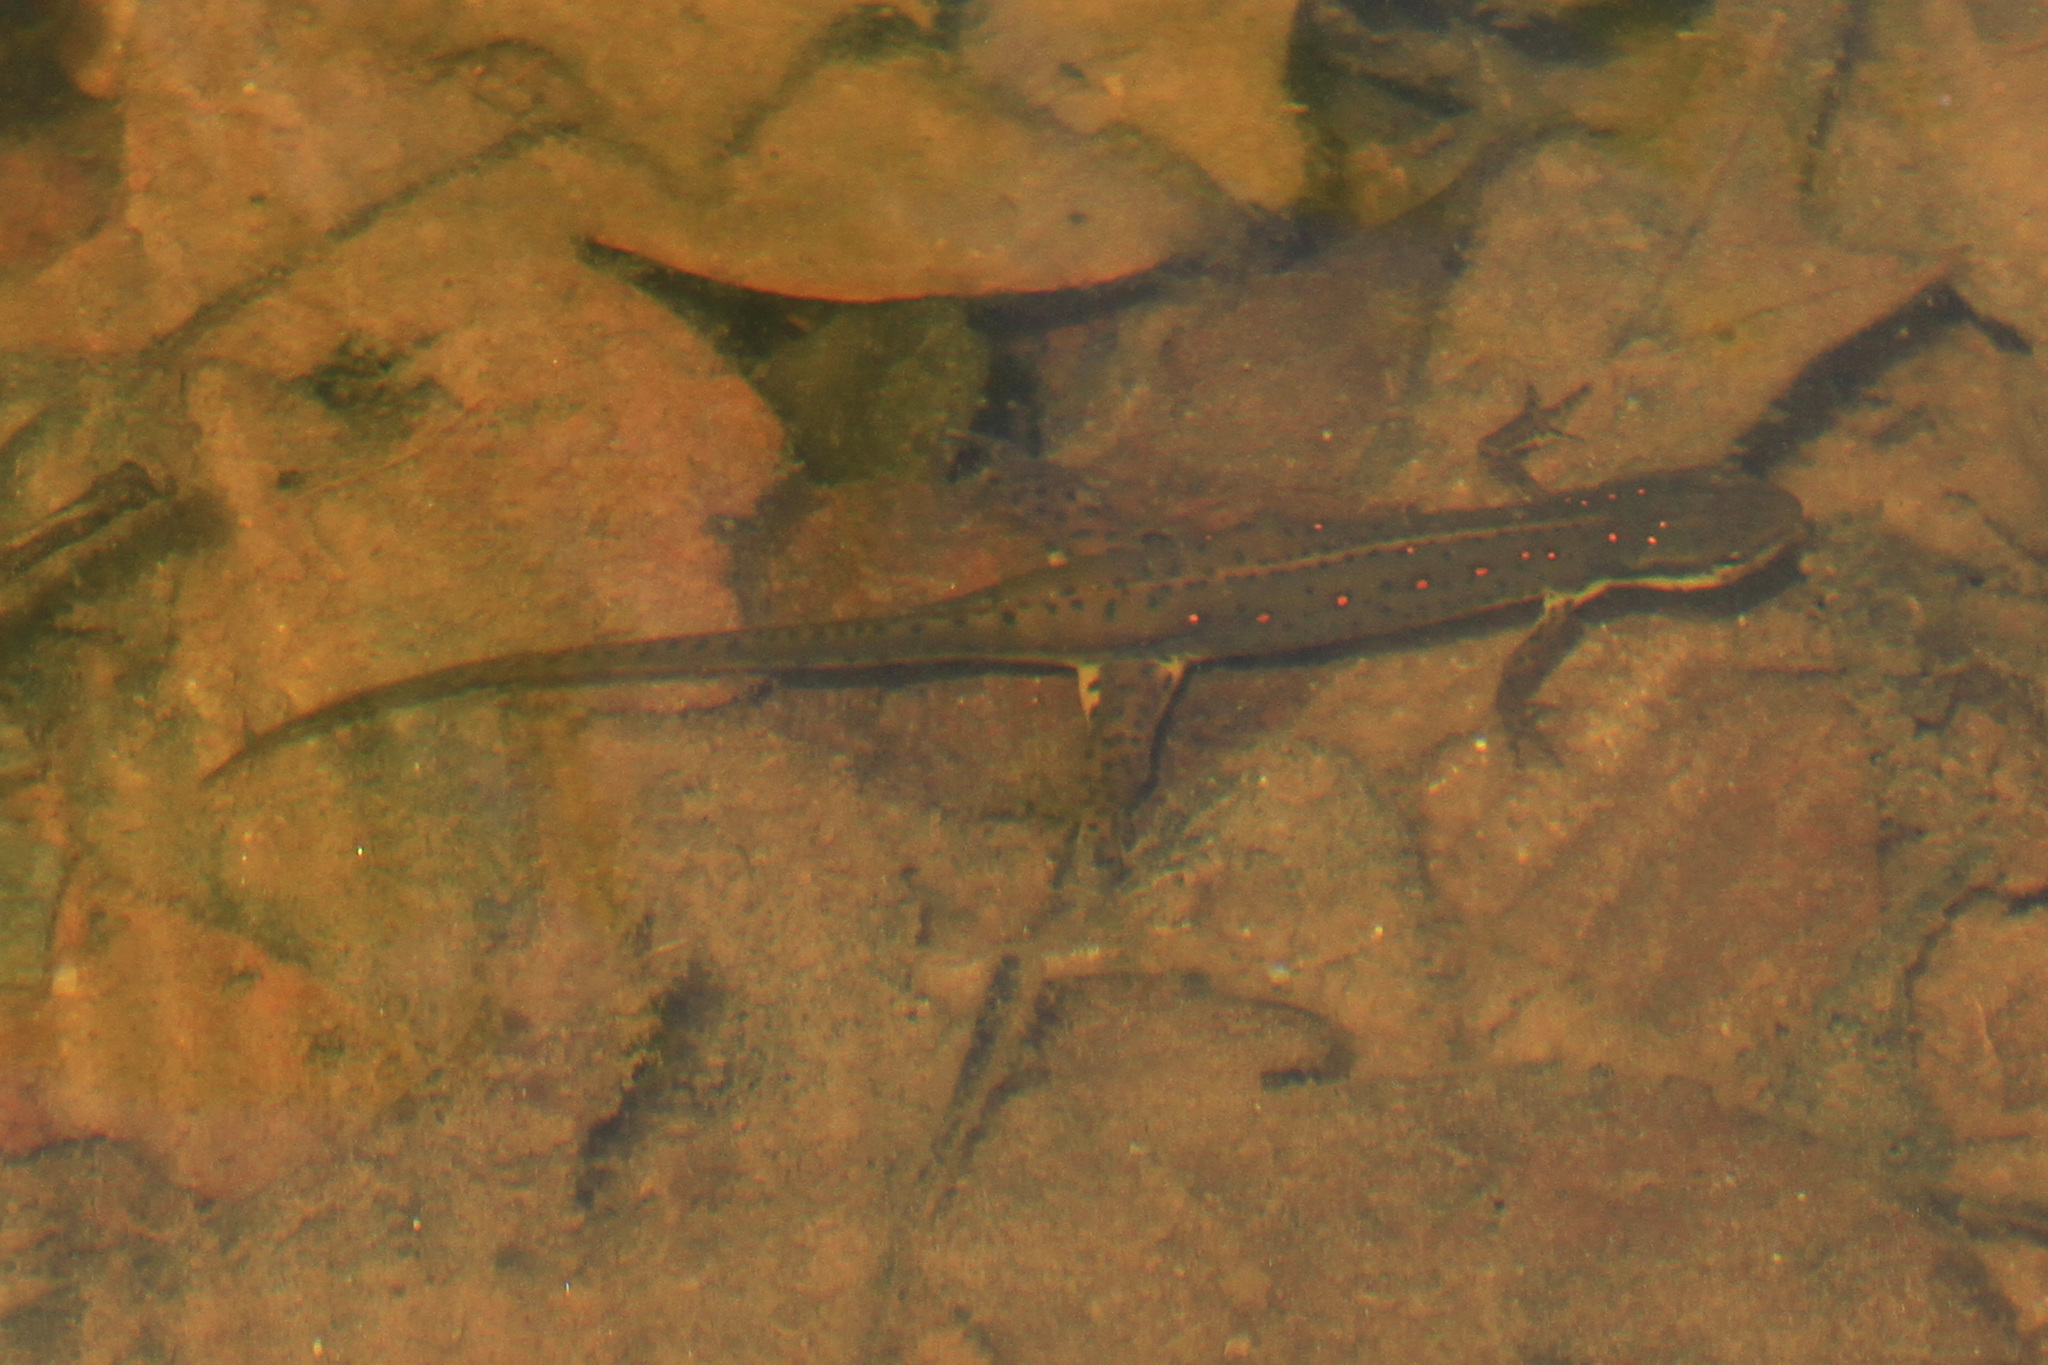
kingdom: Animalia
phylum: Chordata
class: Amphibia
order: Caudata
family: Salamandridae
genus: Notophthalmus
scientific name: Notophthalmus viridescens
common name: Eastern newt
